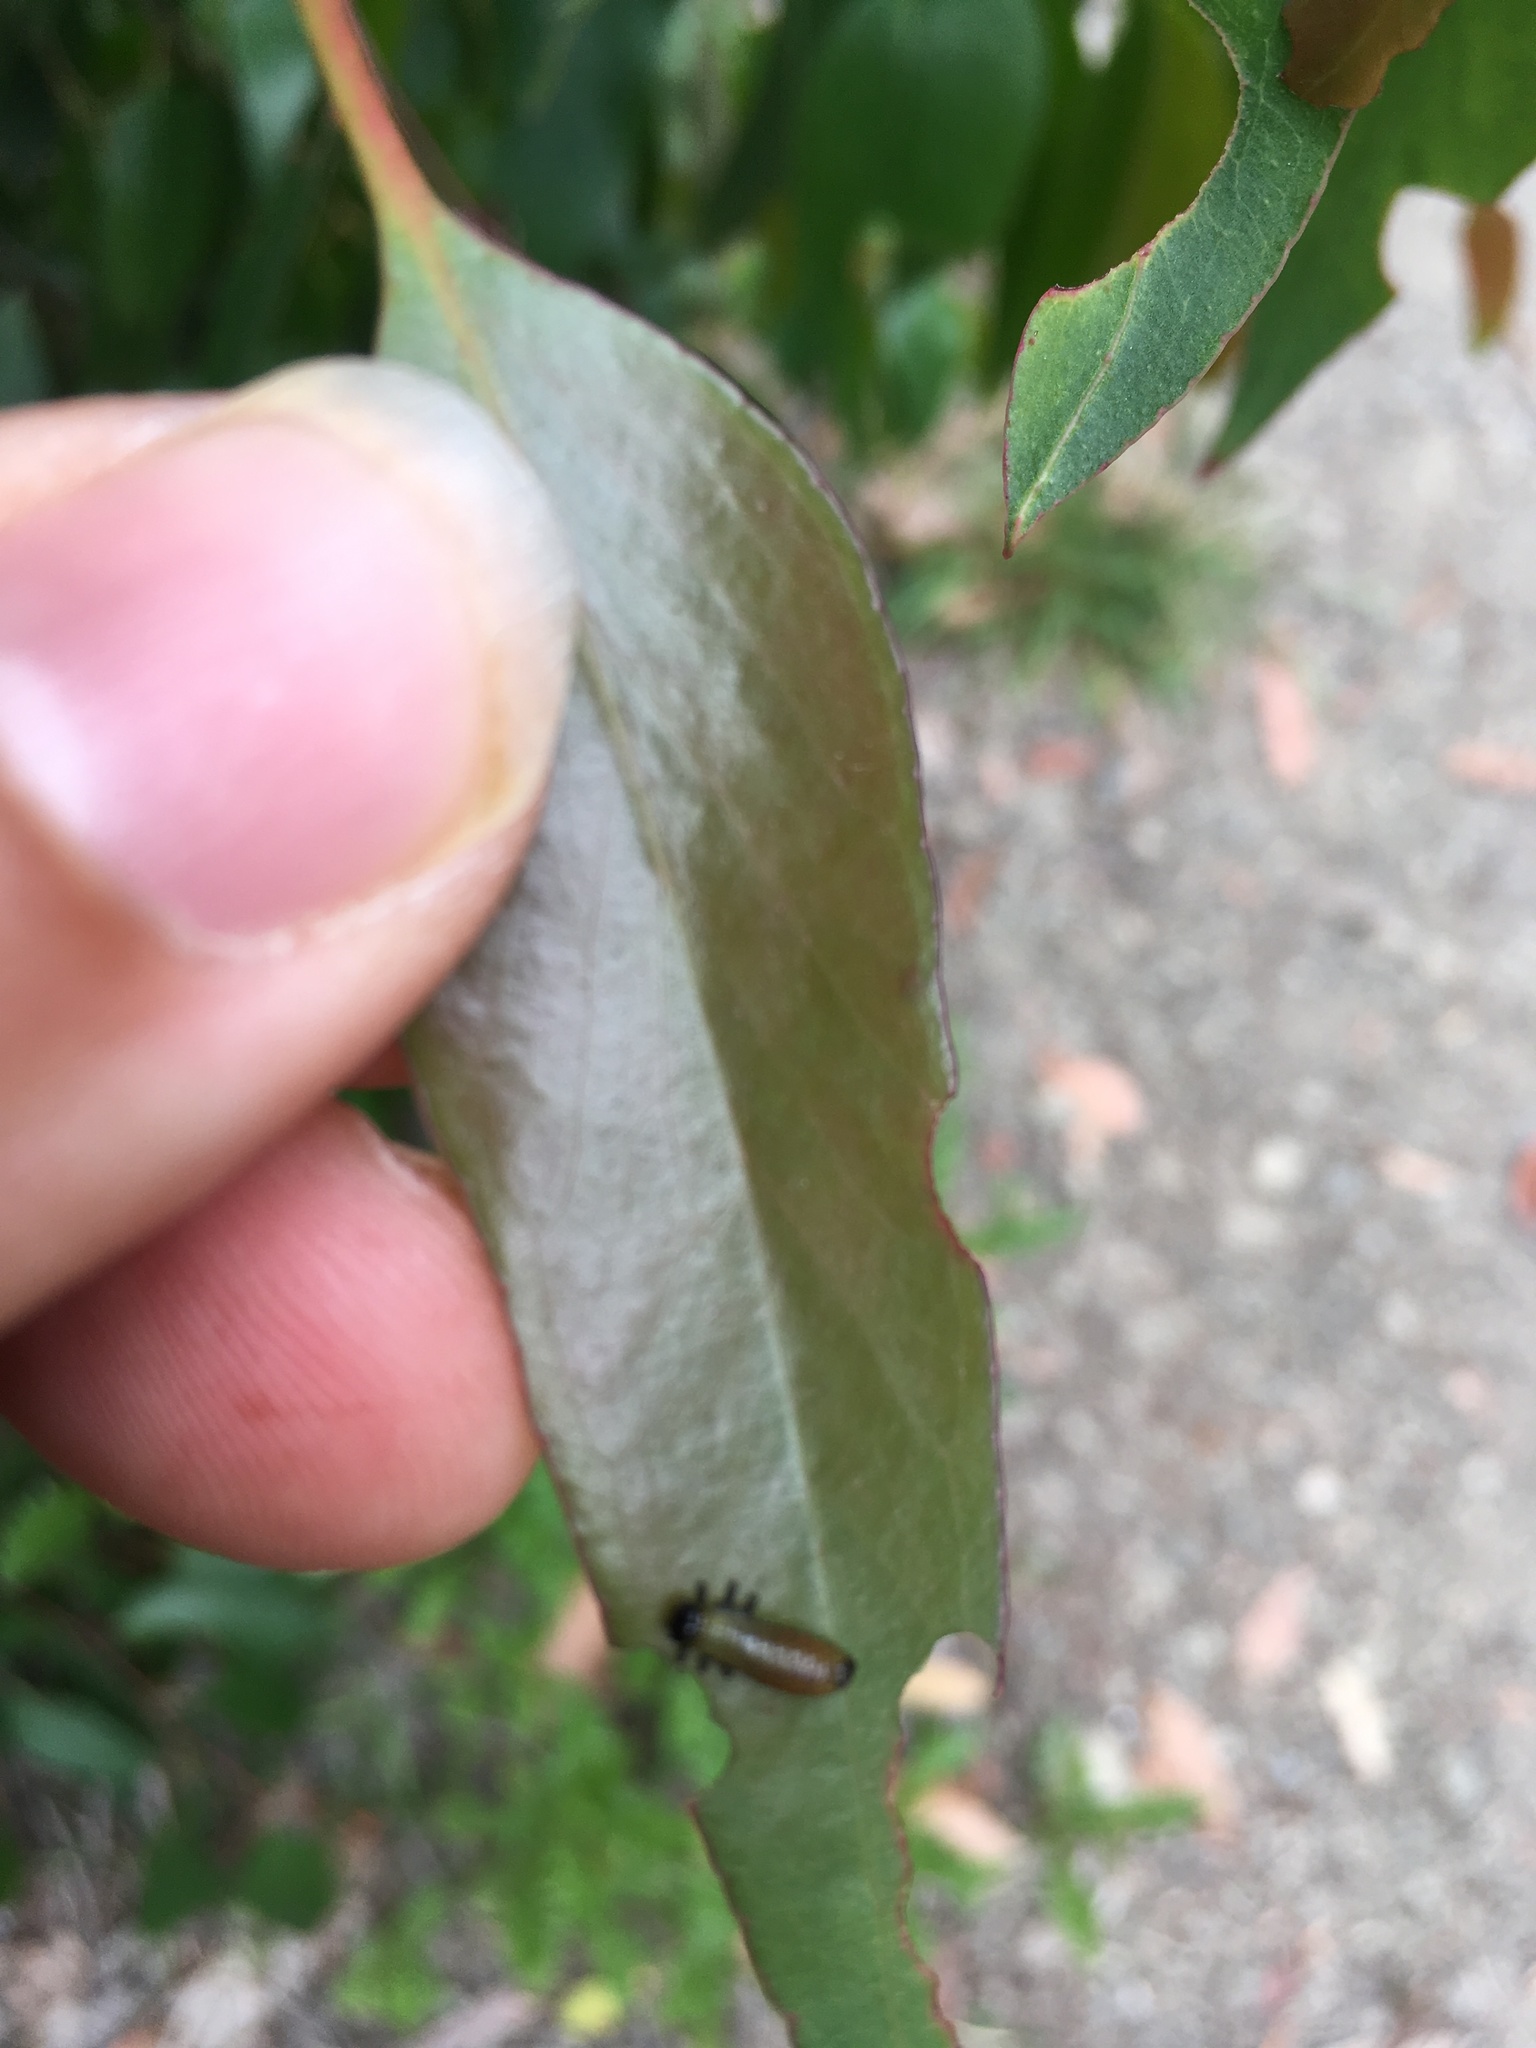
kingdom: Animalia
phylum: Arthropoda
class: Insecta
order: Coleoptera
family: Chrysomelidae
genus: Paropsis
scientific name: Paropsis charybdis
